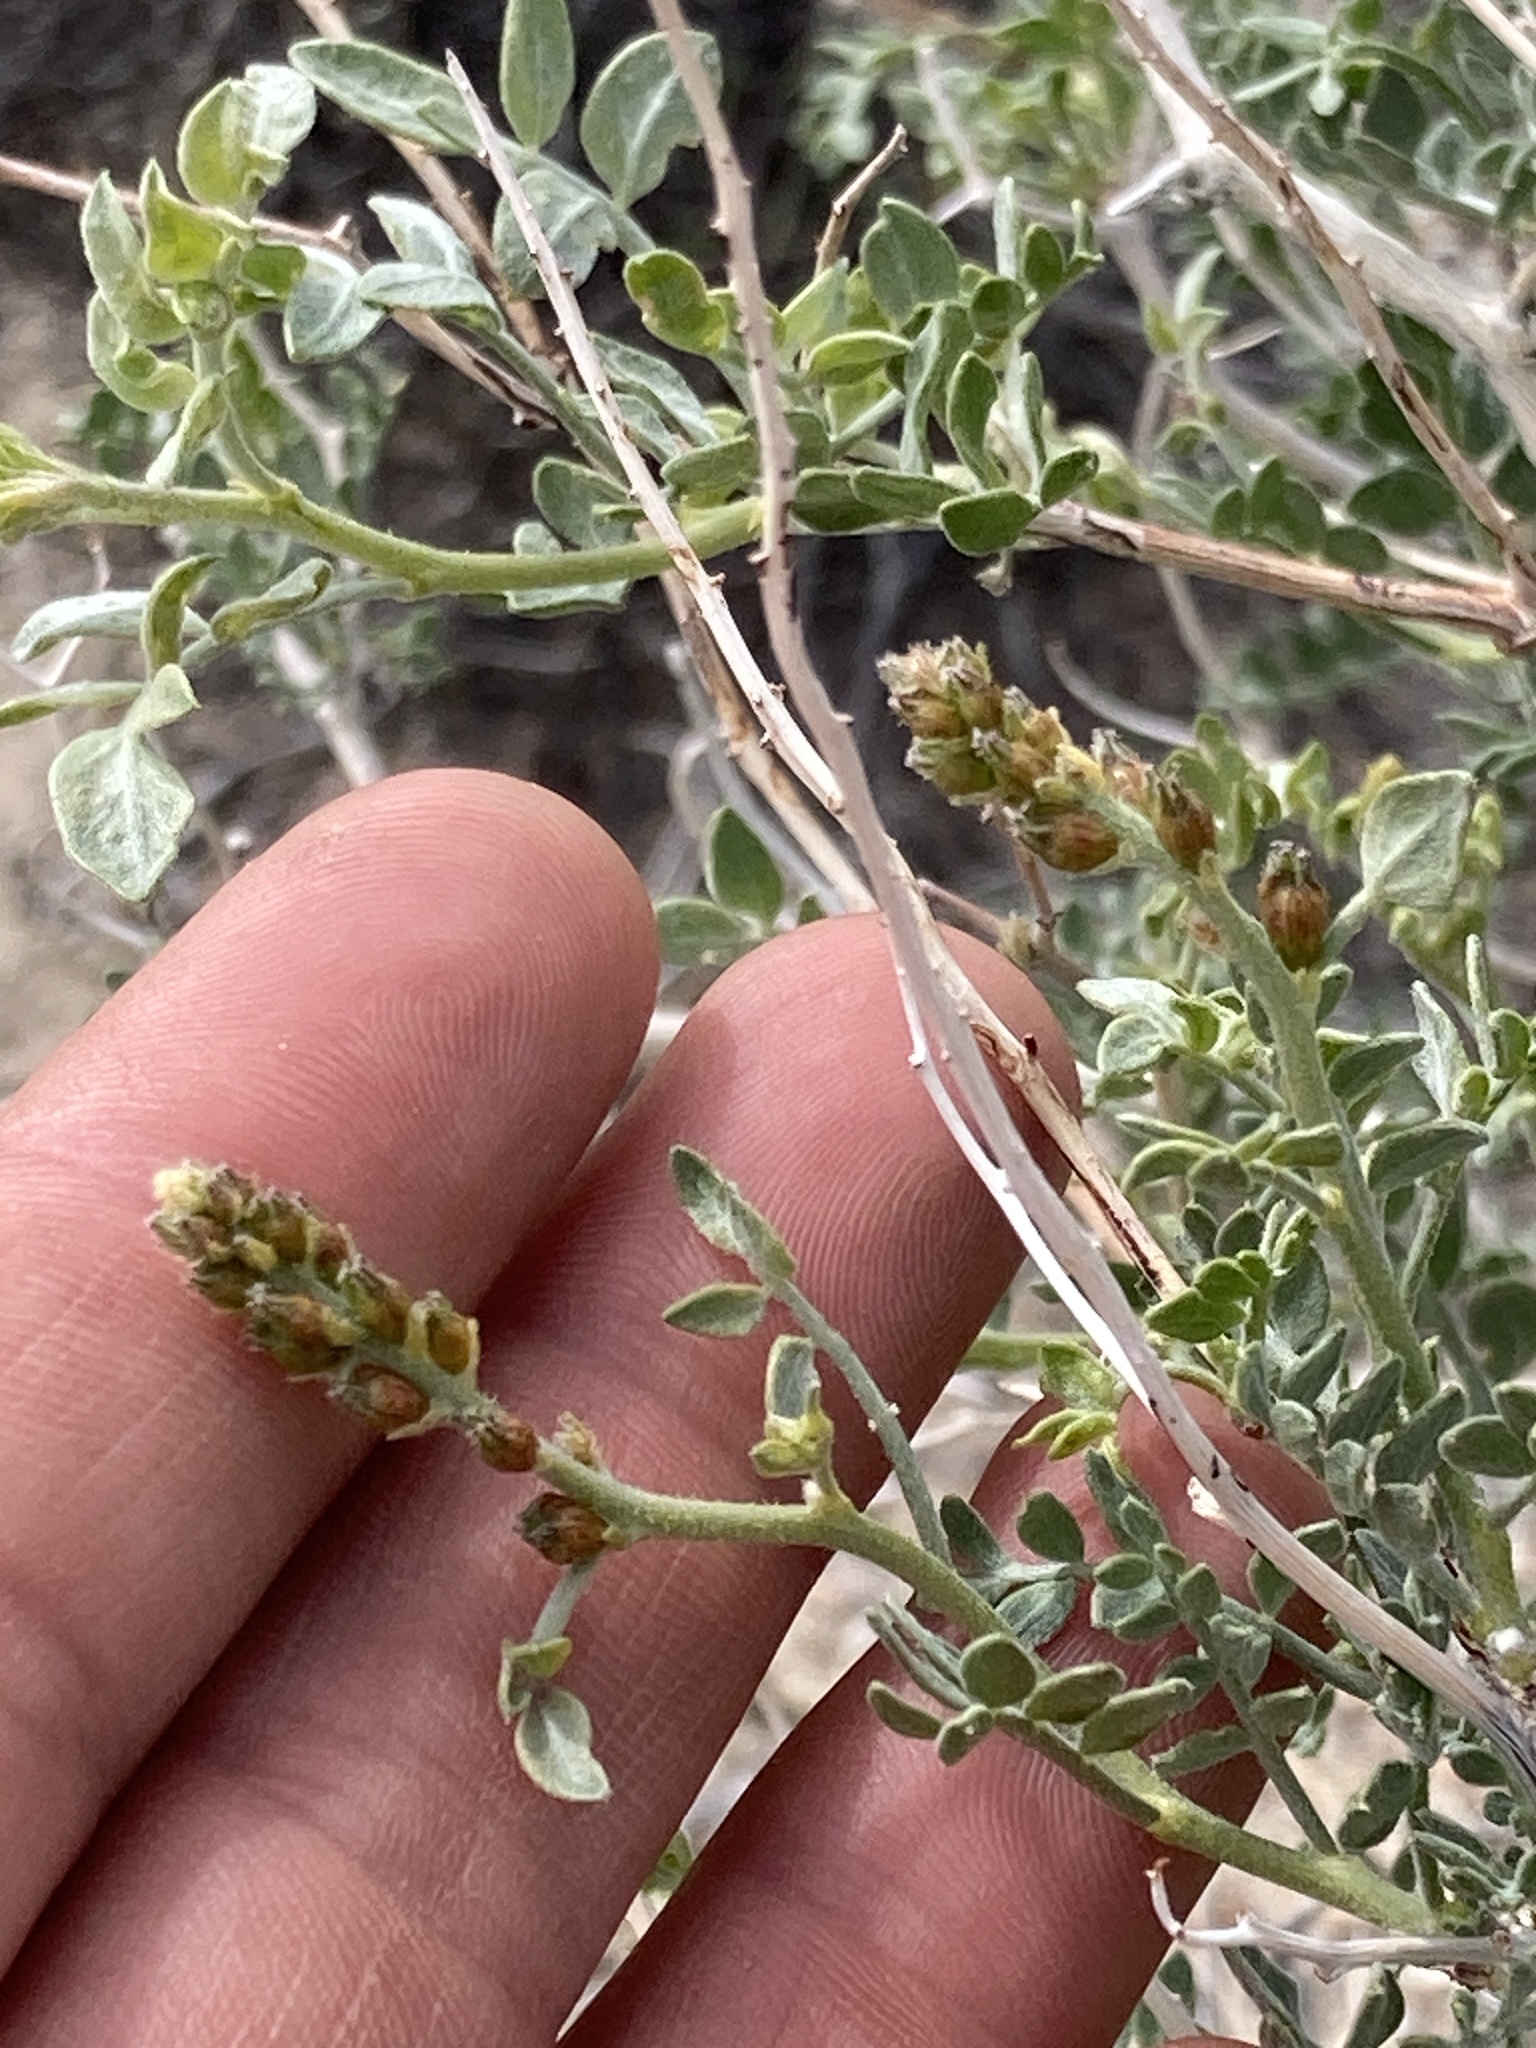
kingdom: Plantae
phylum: Tracheophyta
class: Magnoliopsida
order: Fabales
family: Fabaceae
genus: Psorothamnus
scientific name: Psorothamnus arborescens
